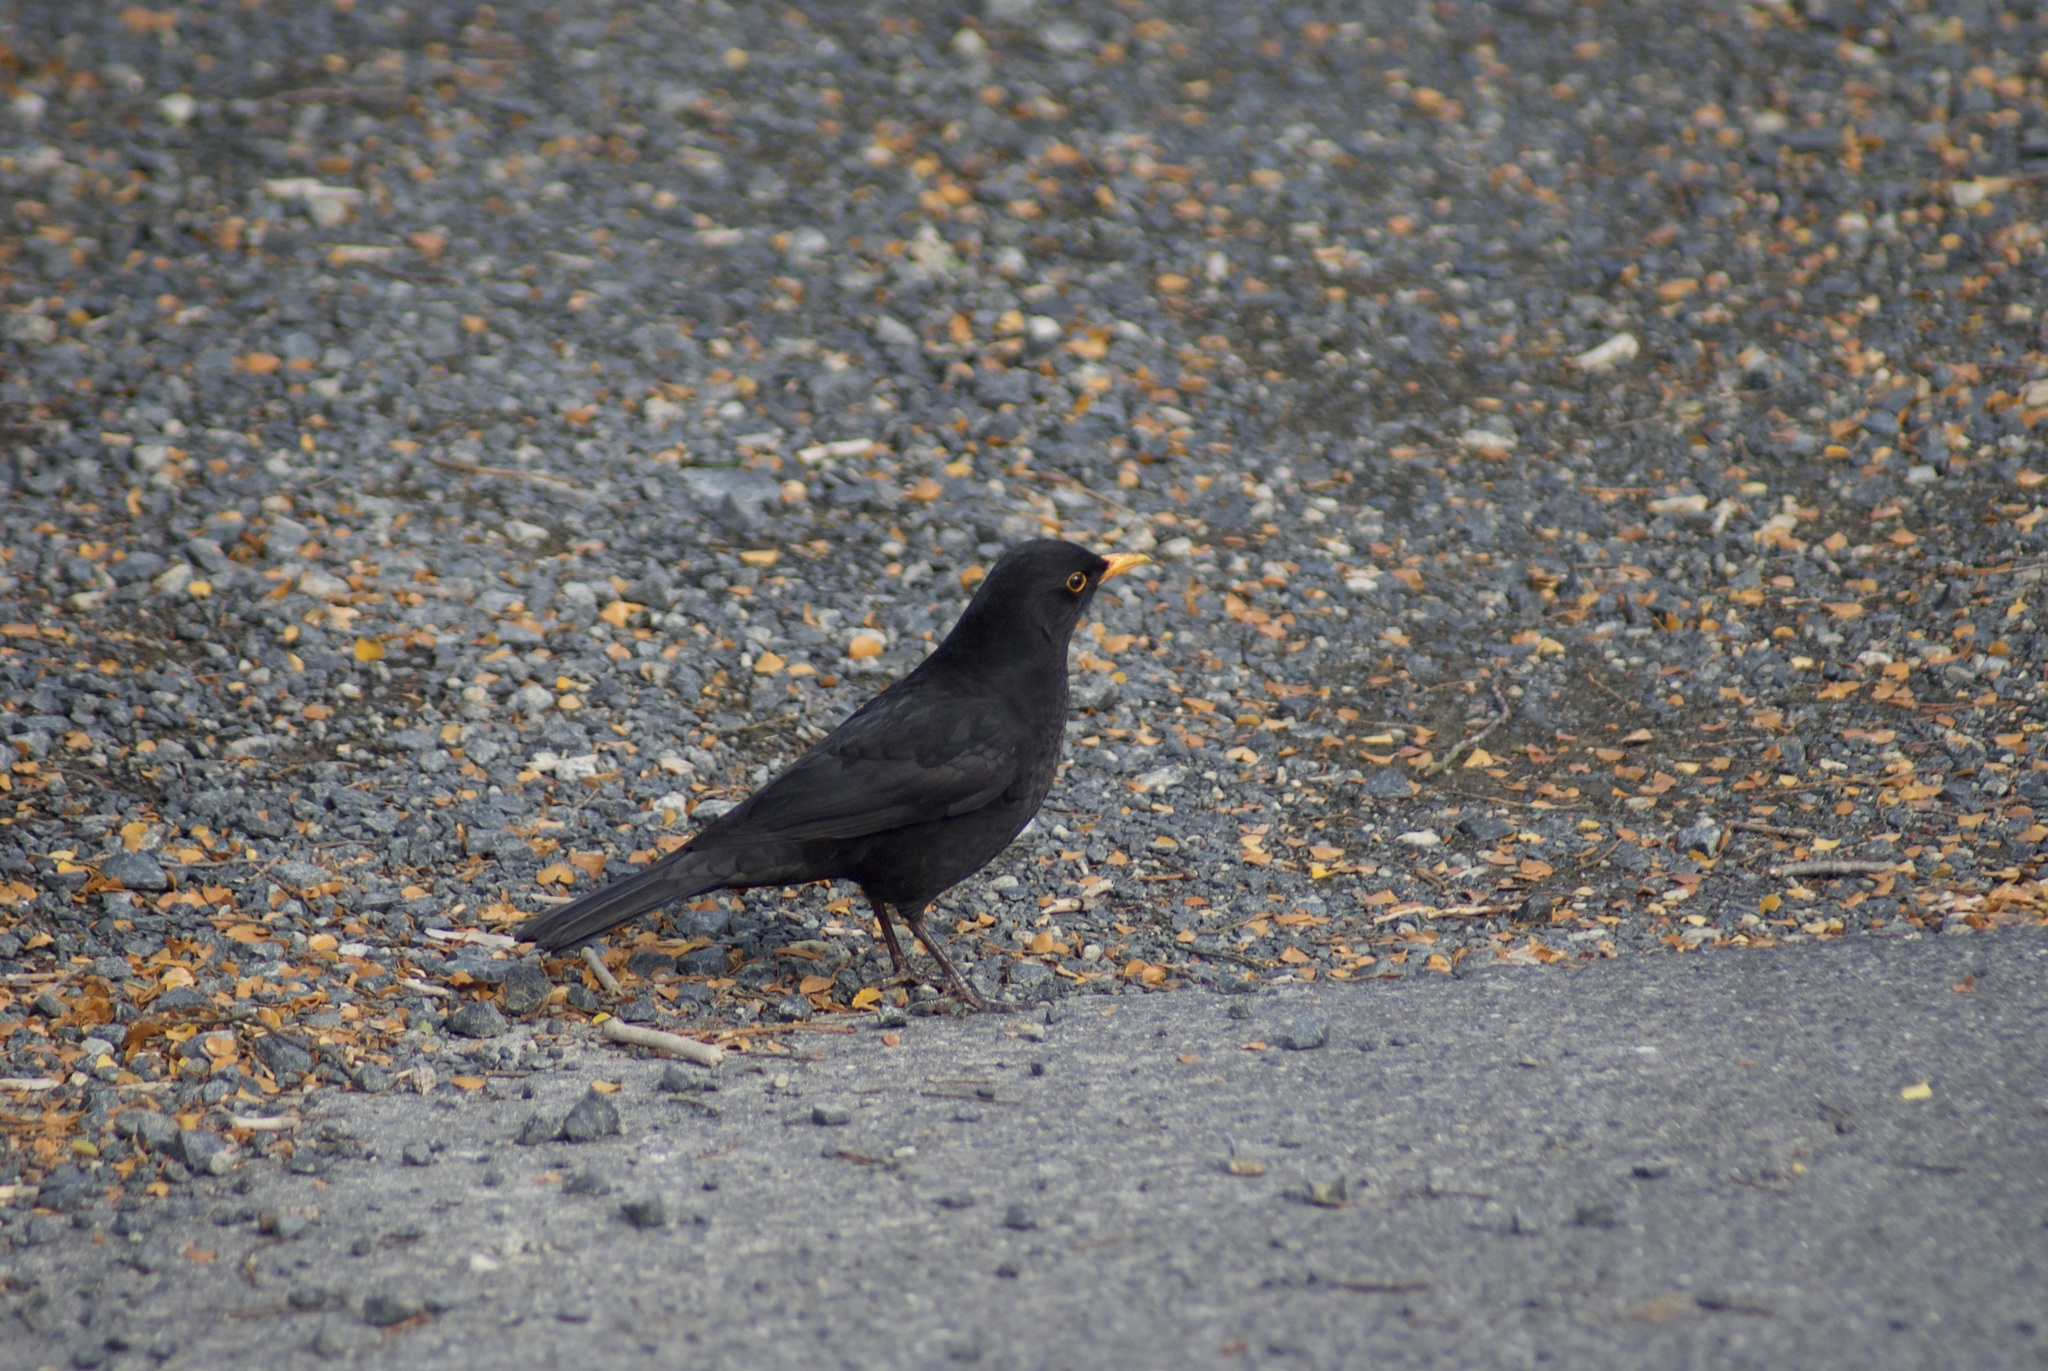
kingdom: Animalia
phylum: Chordata
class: Aves
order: Passeriformes
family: Turdidae
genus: Turdus
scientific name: Turdus merula
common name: Common blackbird
